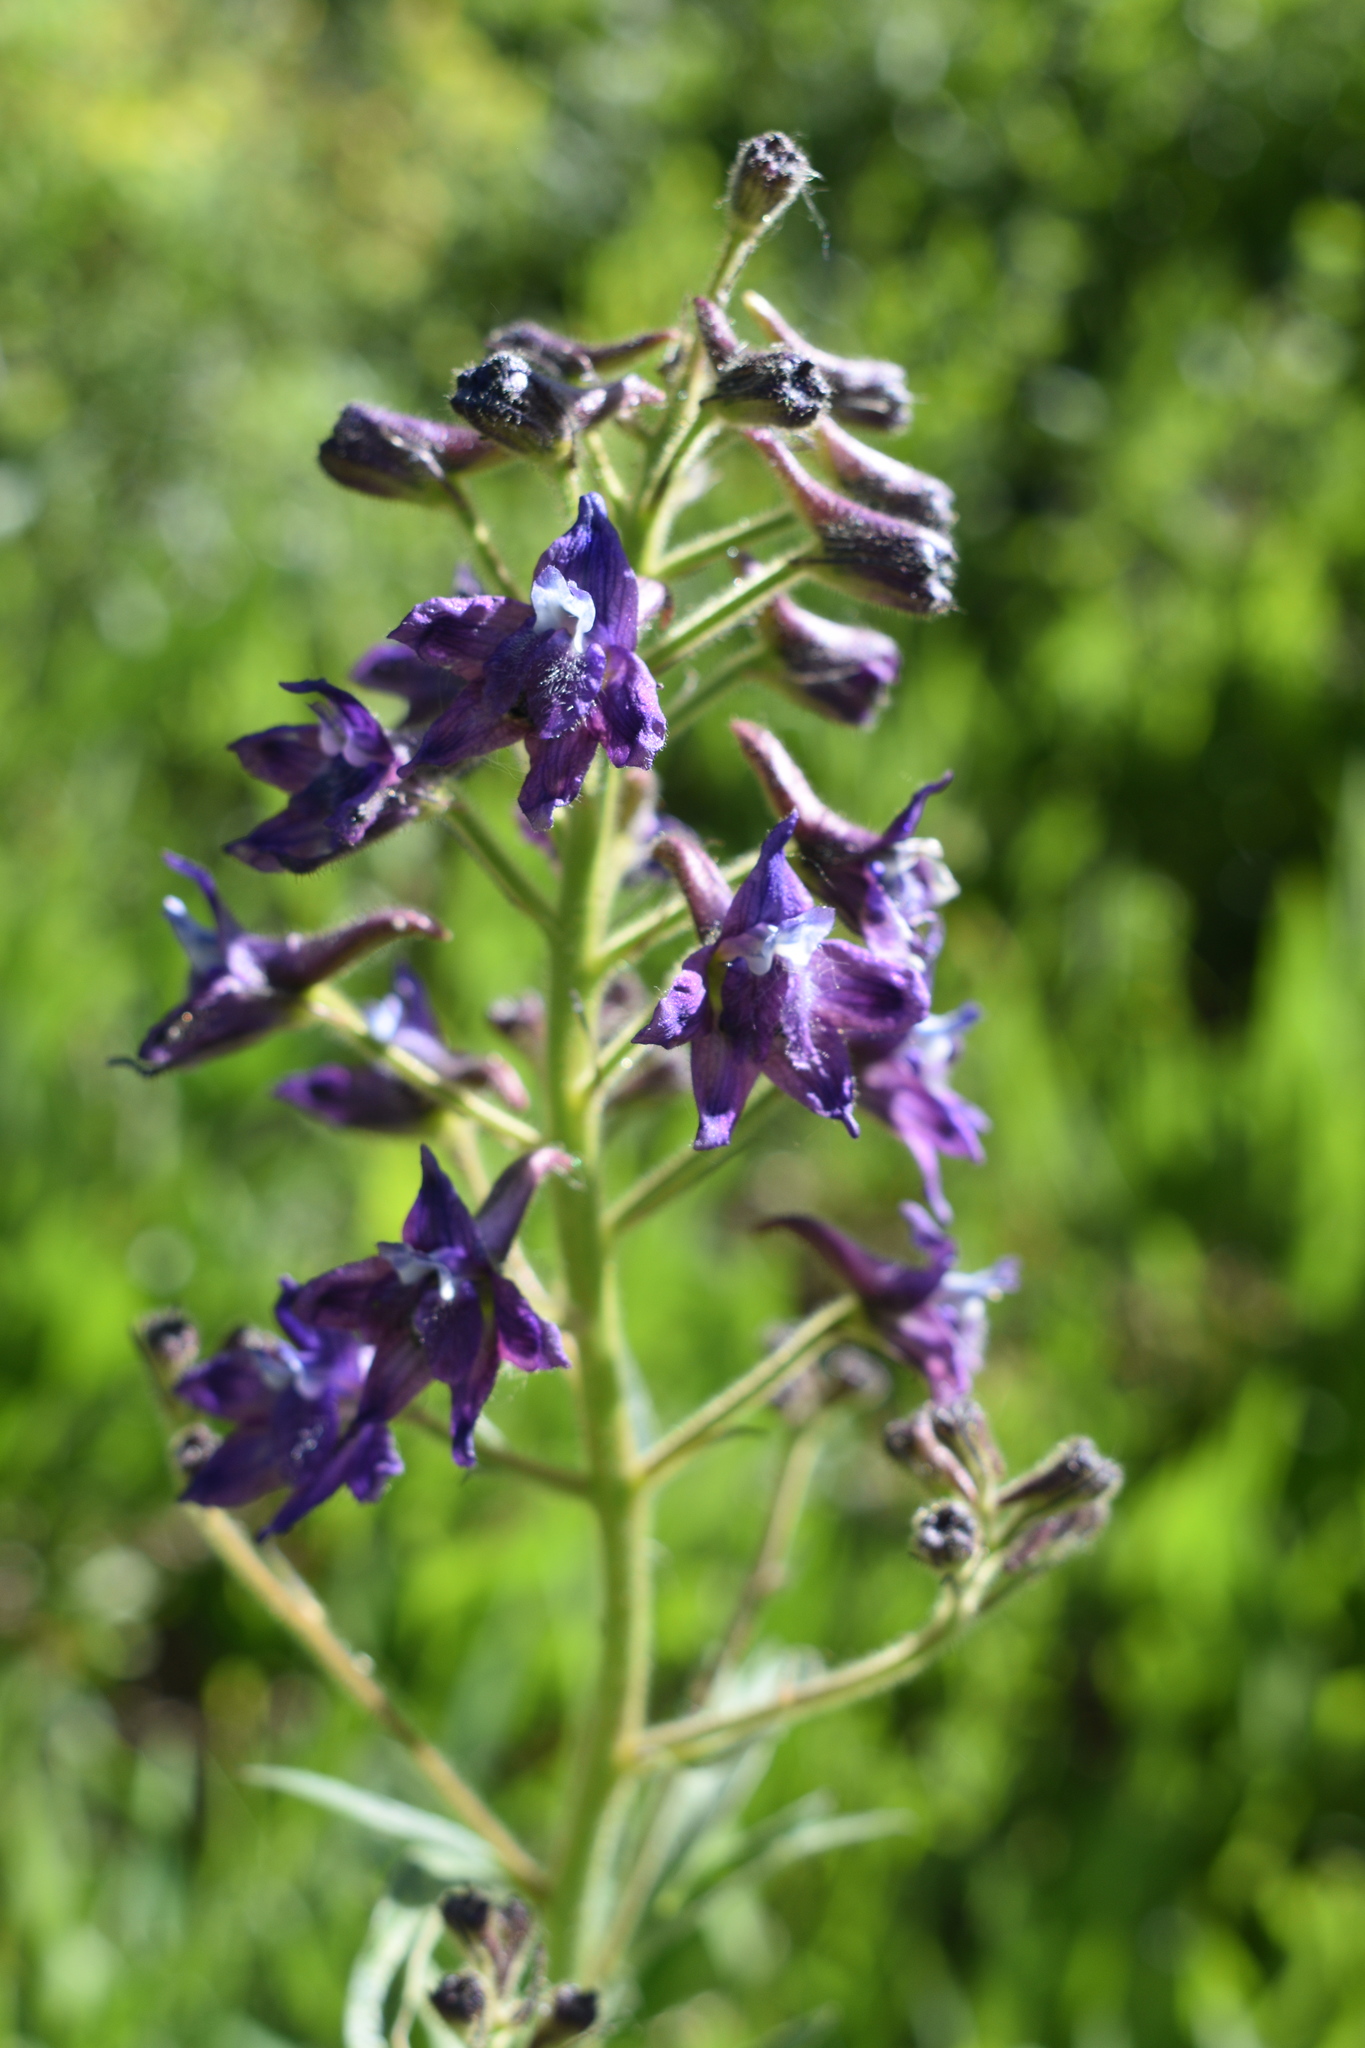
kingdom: Plantae
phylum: Tracheophyta
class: Magnoliopsida
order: Ranunculales
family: Ranunculaceae
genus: Delphinium
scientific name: Delphinium barbeyi
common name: Subalpine larkspur
